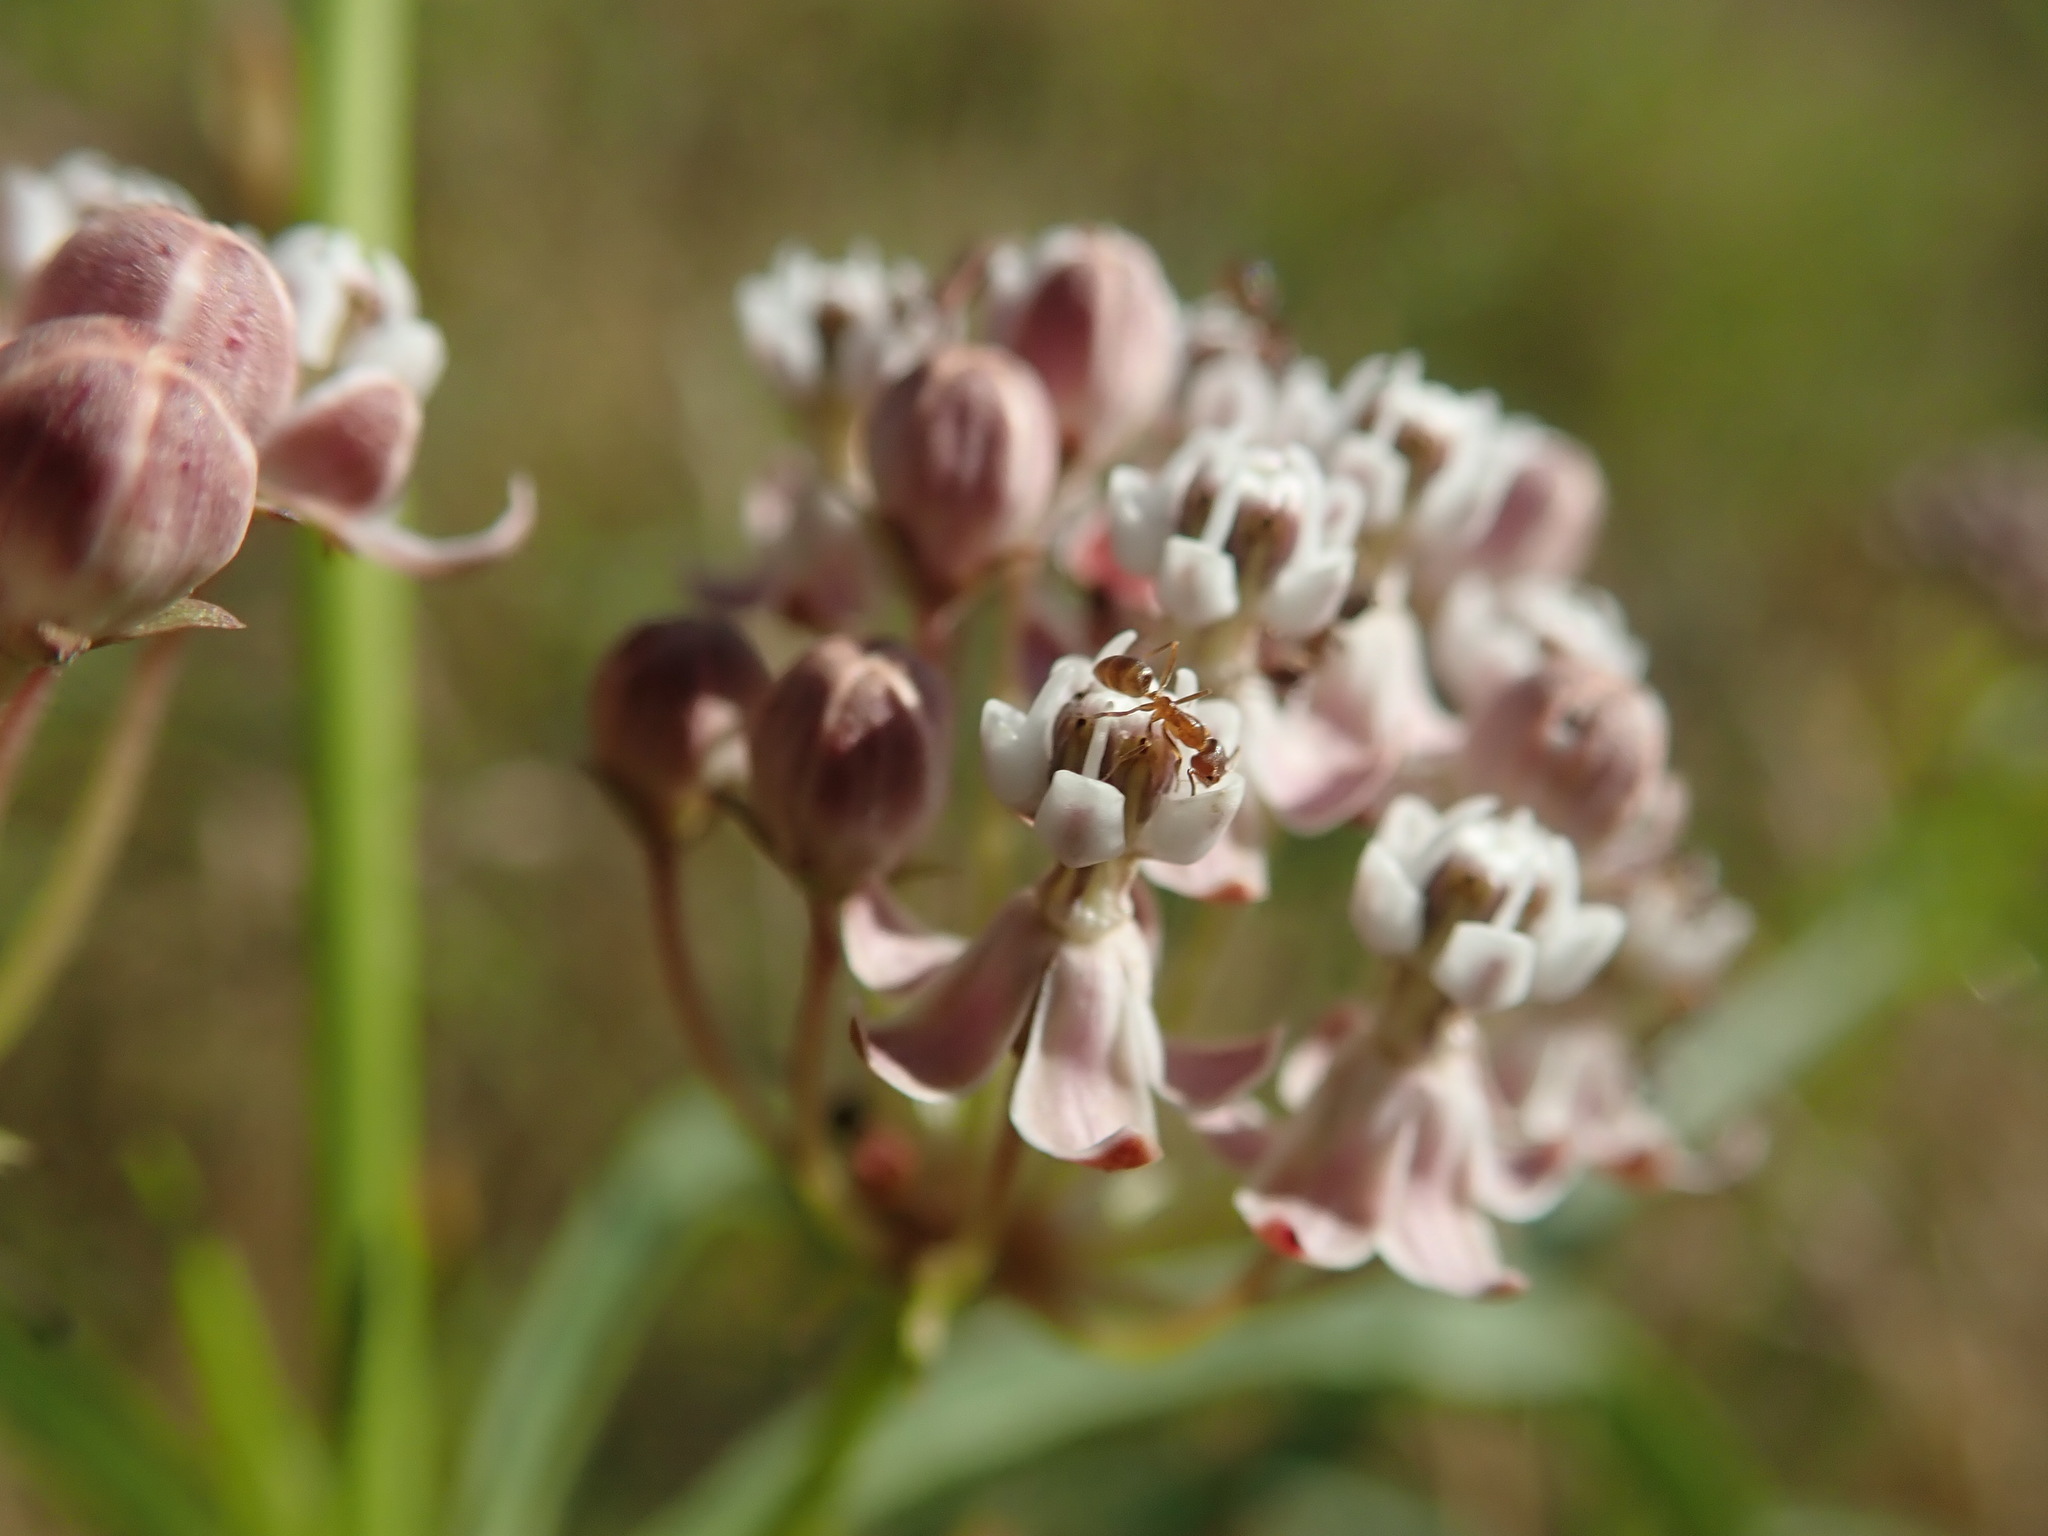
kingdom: Plantae
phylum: Tracheophyta
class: Magnoliopsida
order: Gentianales
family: Apocynaceae
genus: Asclepias
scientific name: Asclepias fascicularis
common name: Mexican milkweed
